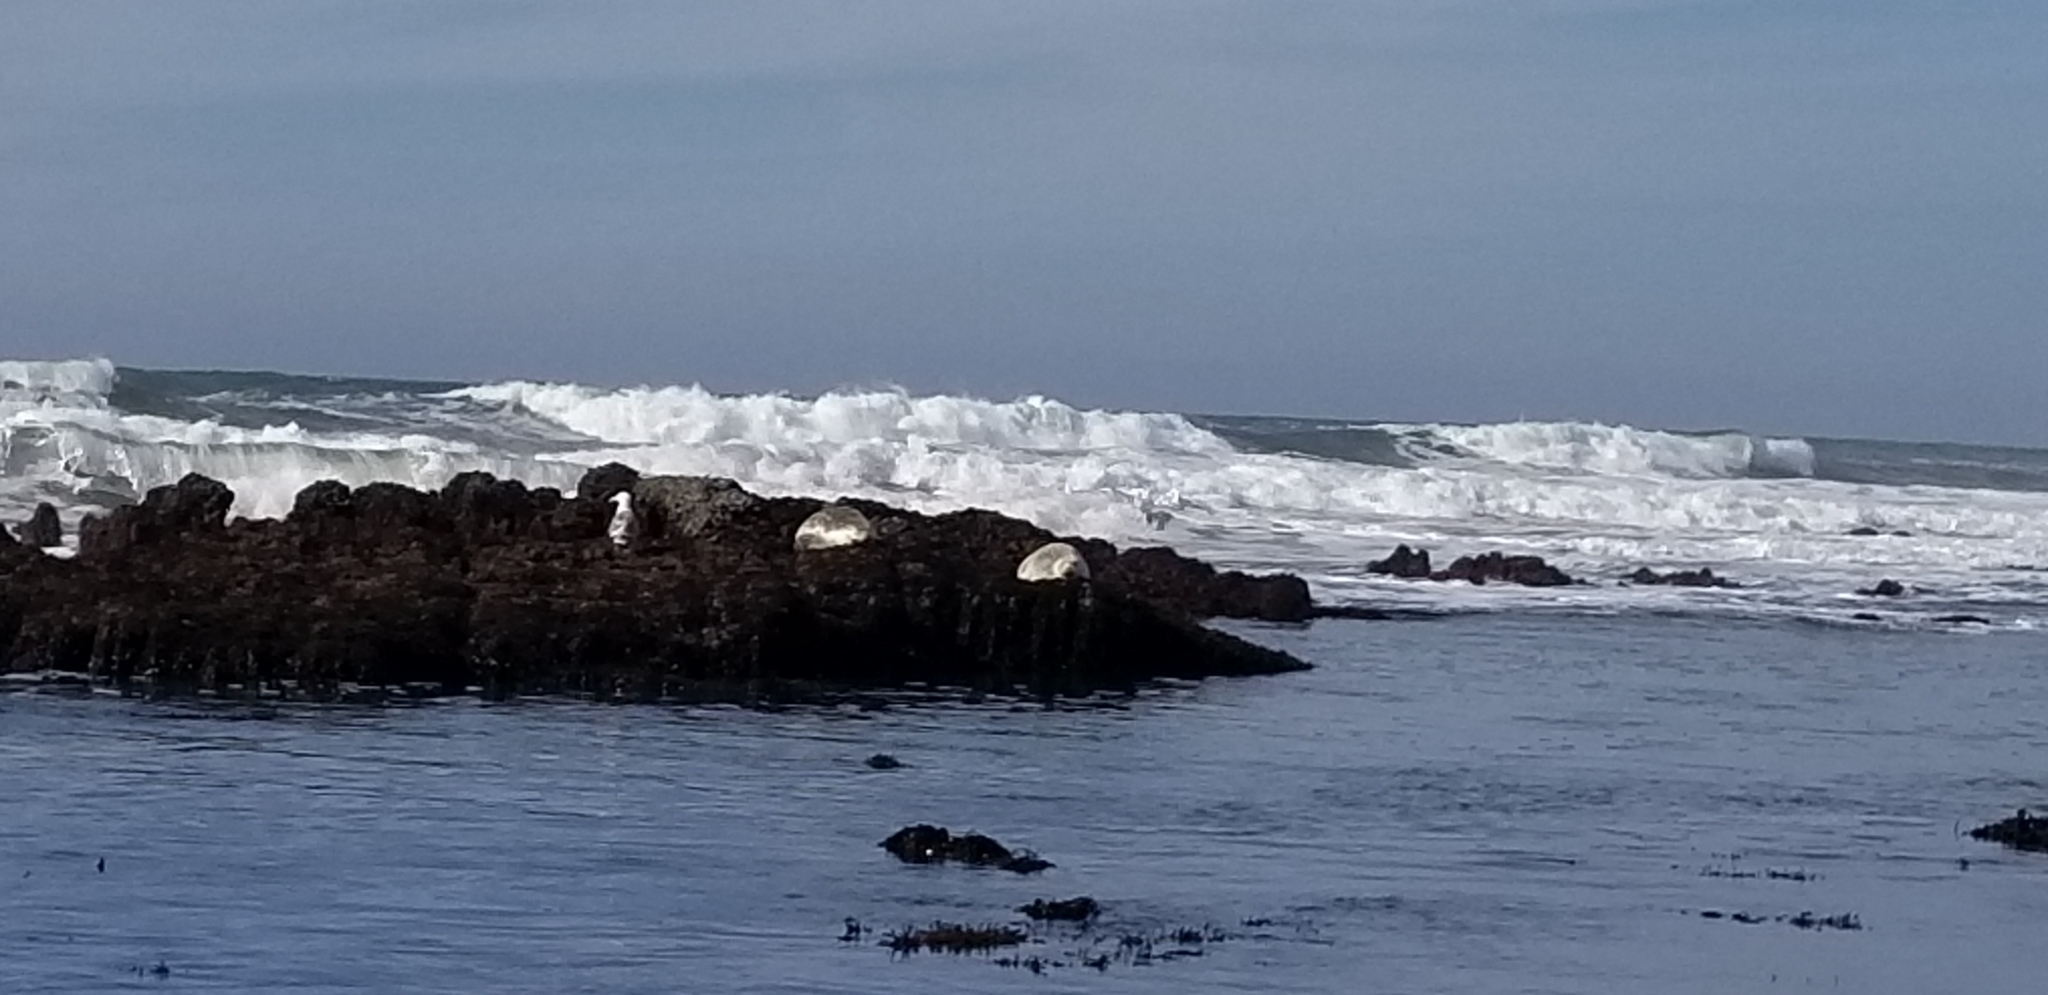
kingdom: Animalia
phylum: Chordata
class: Mammalia
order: Carnivora
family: Phocidae
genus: Phoca
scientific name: Phoca vitulina
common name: Harbor seal
